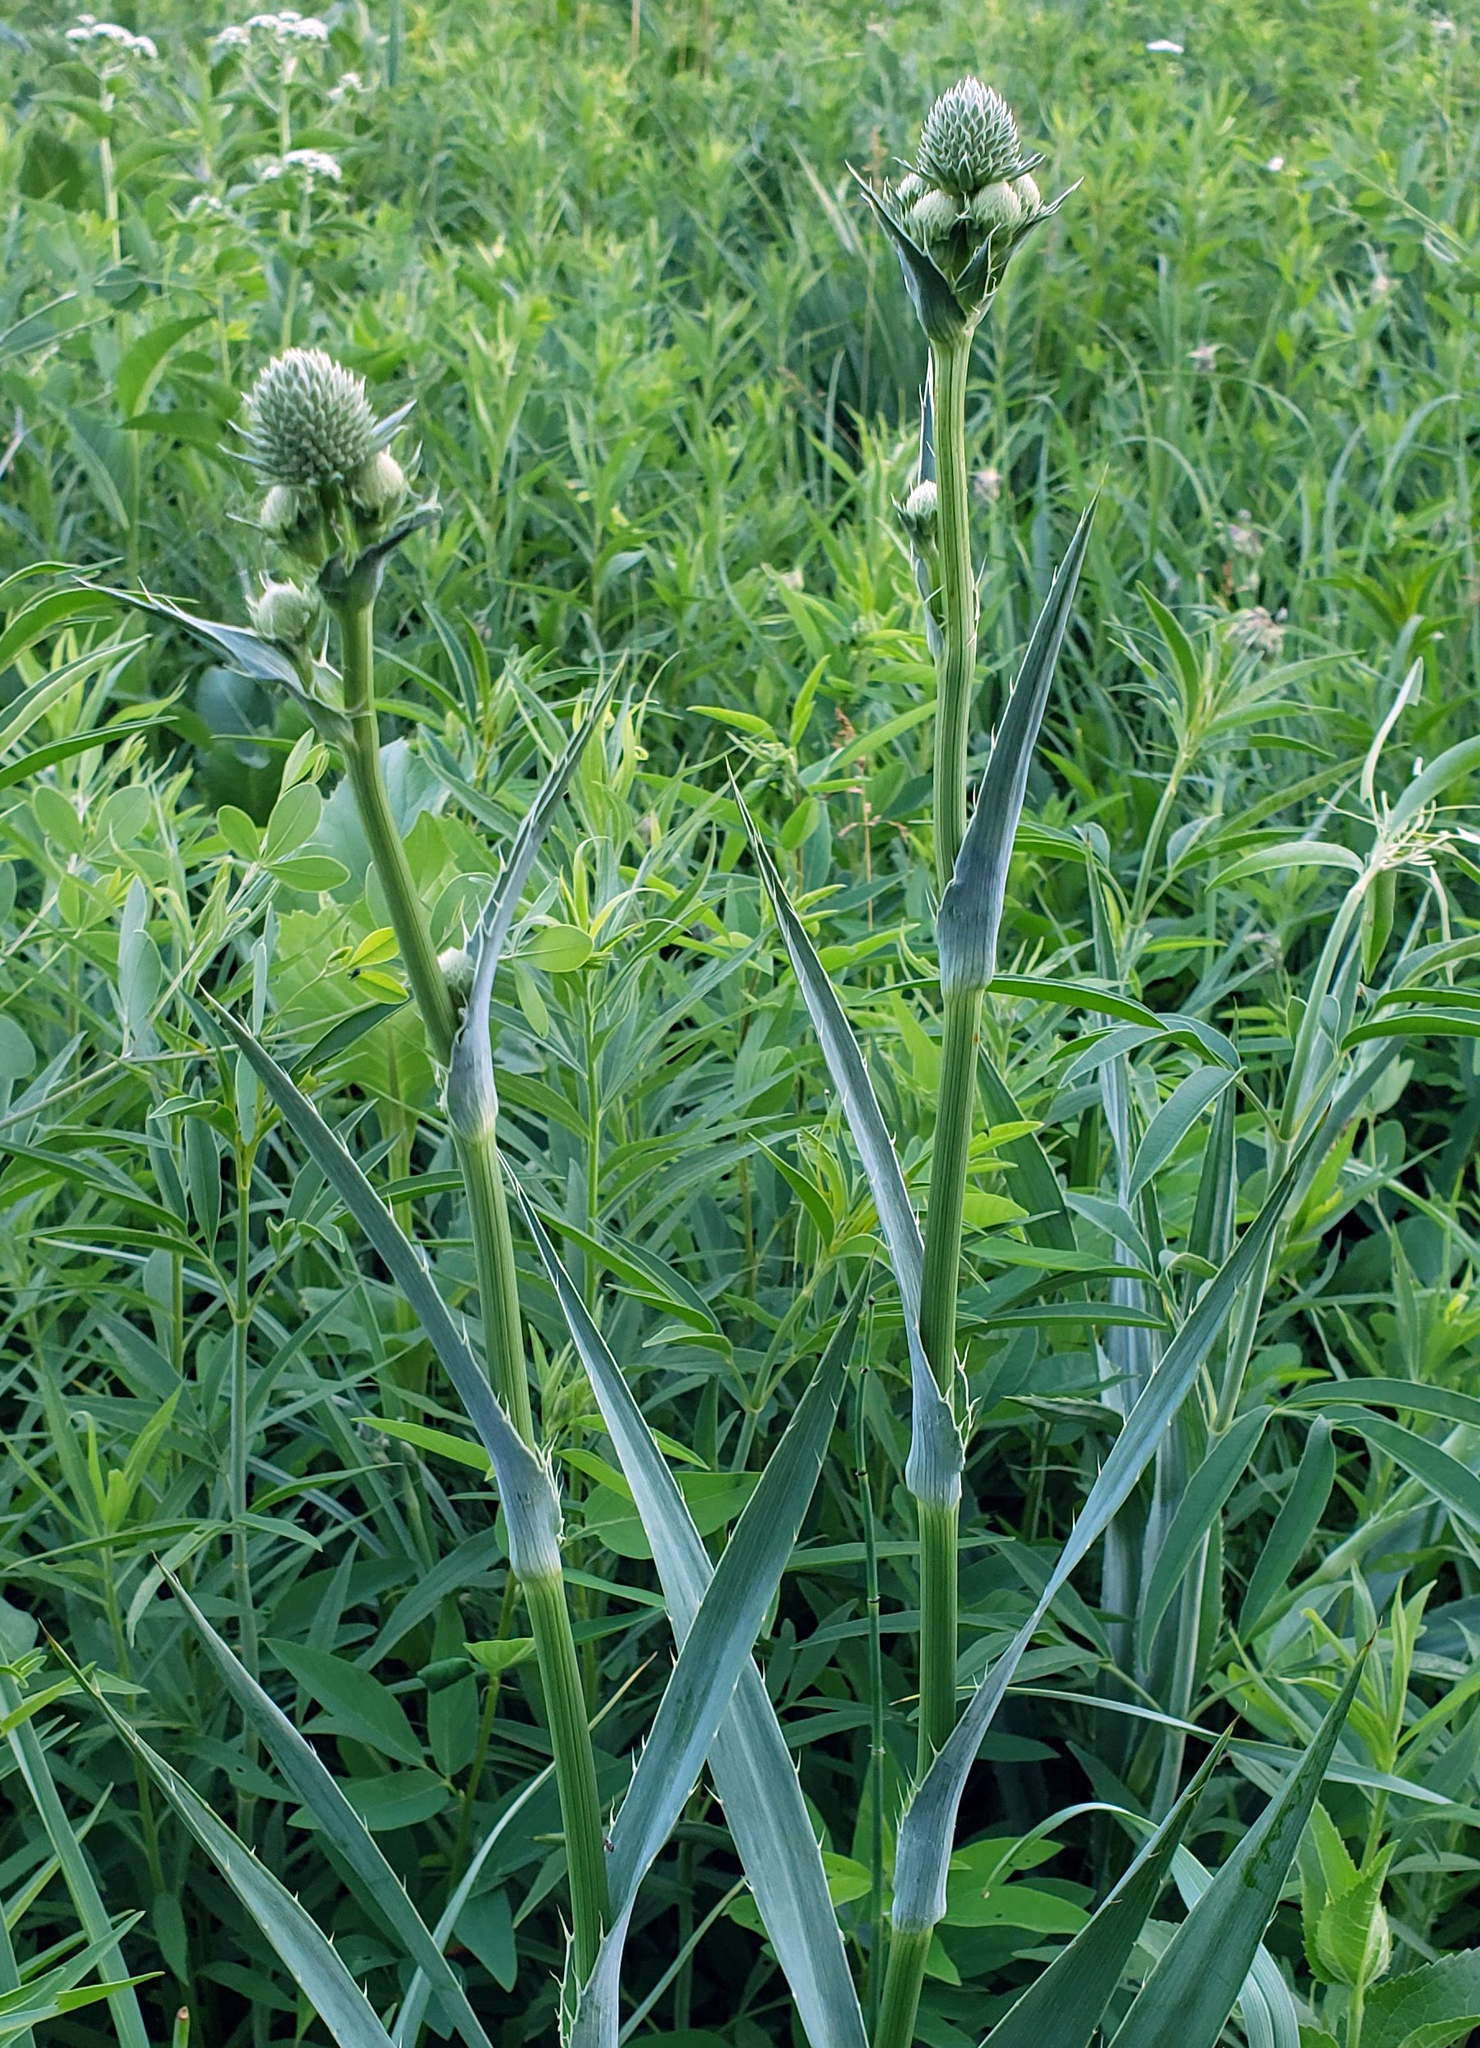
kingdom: Plantae
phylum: Tracheophyta
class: Magnoliopsida
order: Apiales
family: Apiaceae
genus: Eryngium
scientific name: Eryngium yuccifolium
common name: Button eryngo
